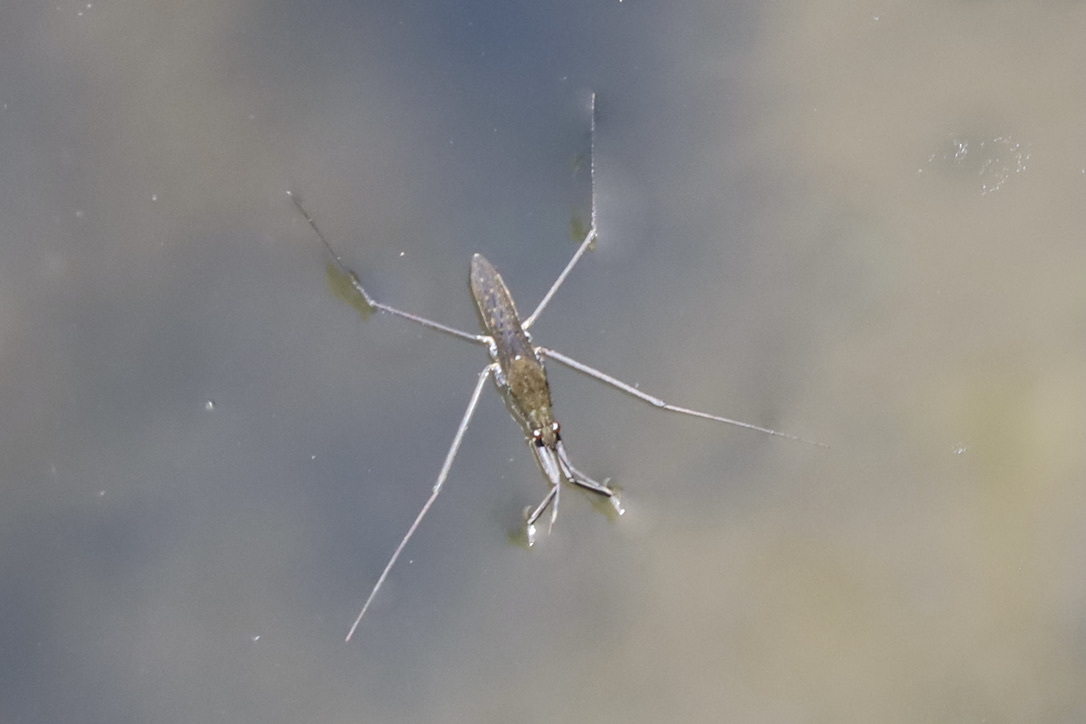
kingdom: Animalia
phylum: Arthropoda
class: Insecta
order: Hemiptera
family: Gerridae
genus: Aquarius
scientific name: Aquarius remigis
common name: Common water strider
